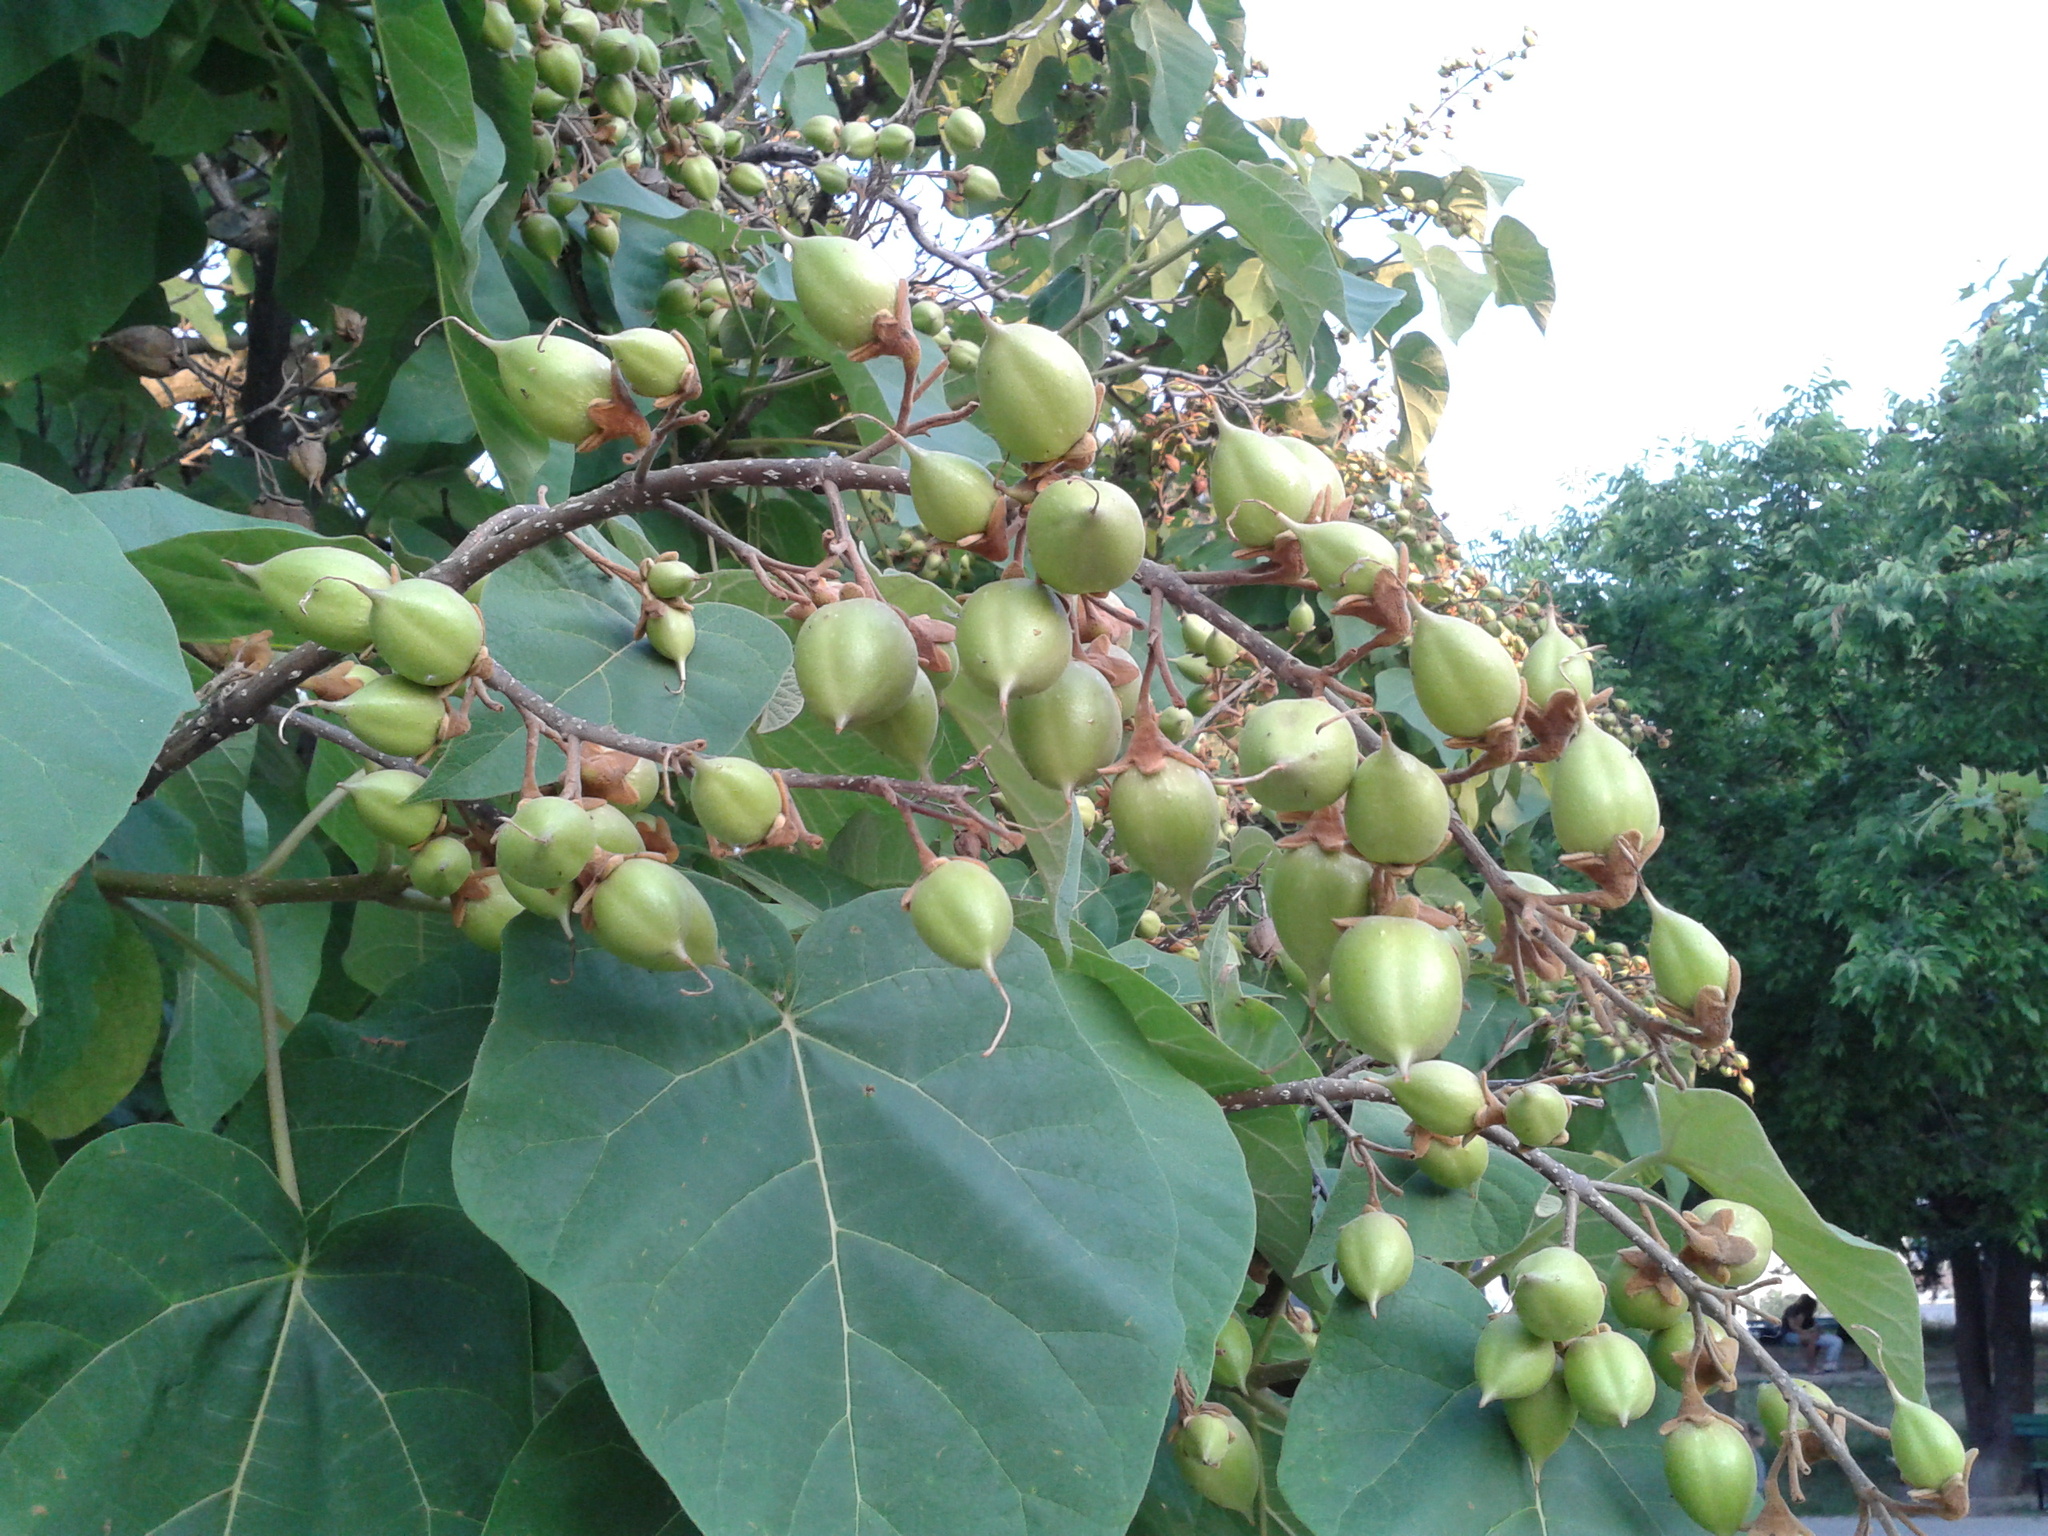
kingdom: Plantae
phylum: Tracheophyta
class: Magnoliopsida
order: Lamiales
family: Paulowniaceae
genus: Paulownia
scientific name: Paulownia tomentosa
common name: Foxglove-tree
